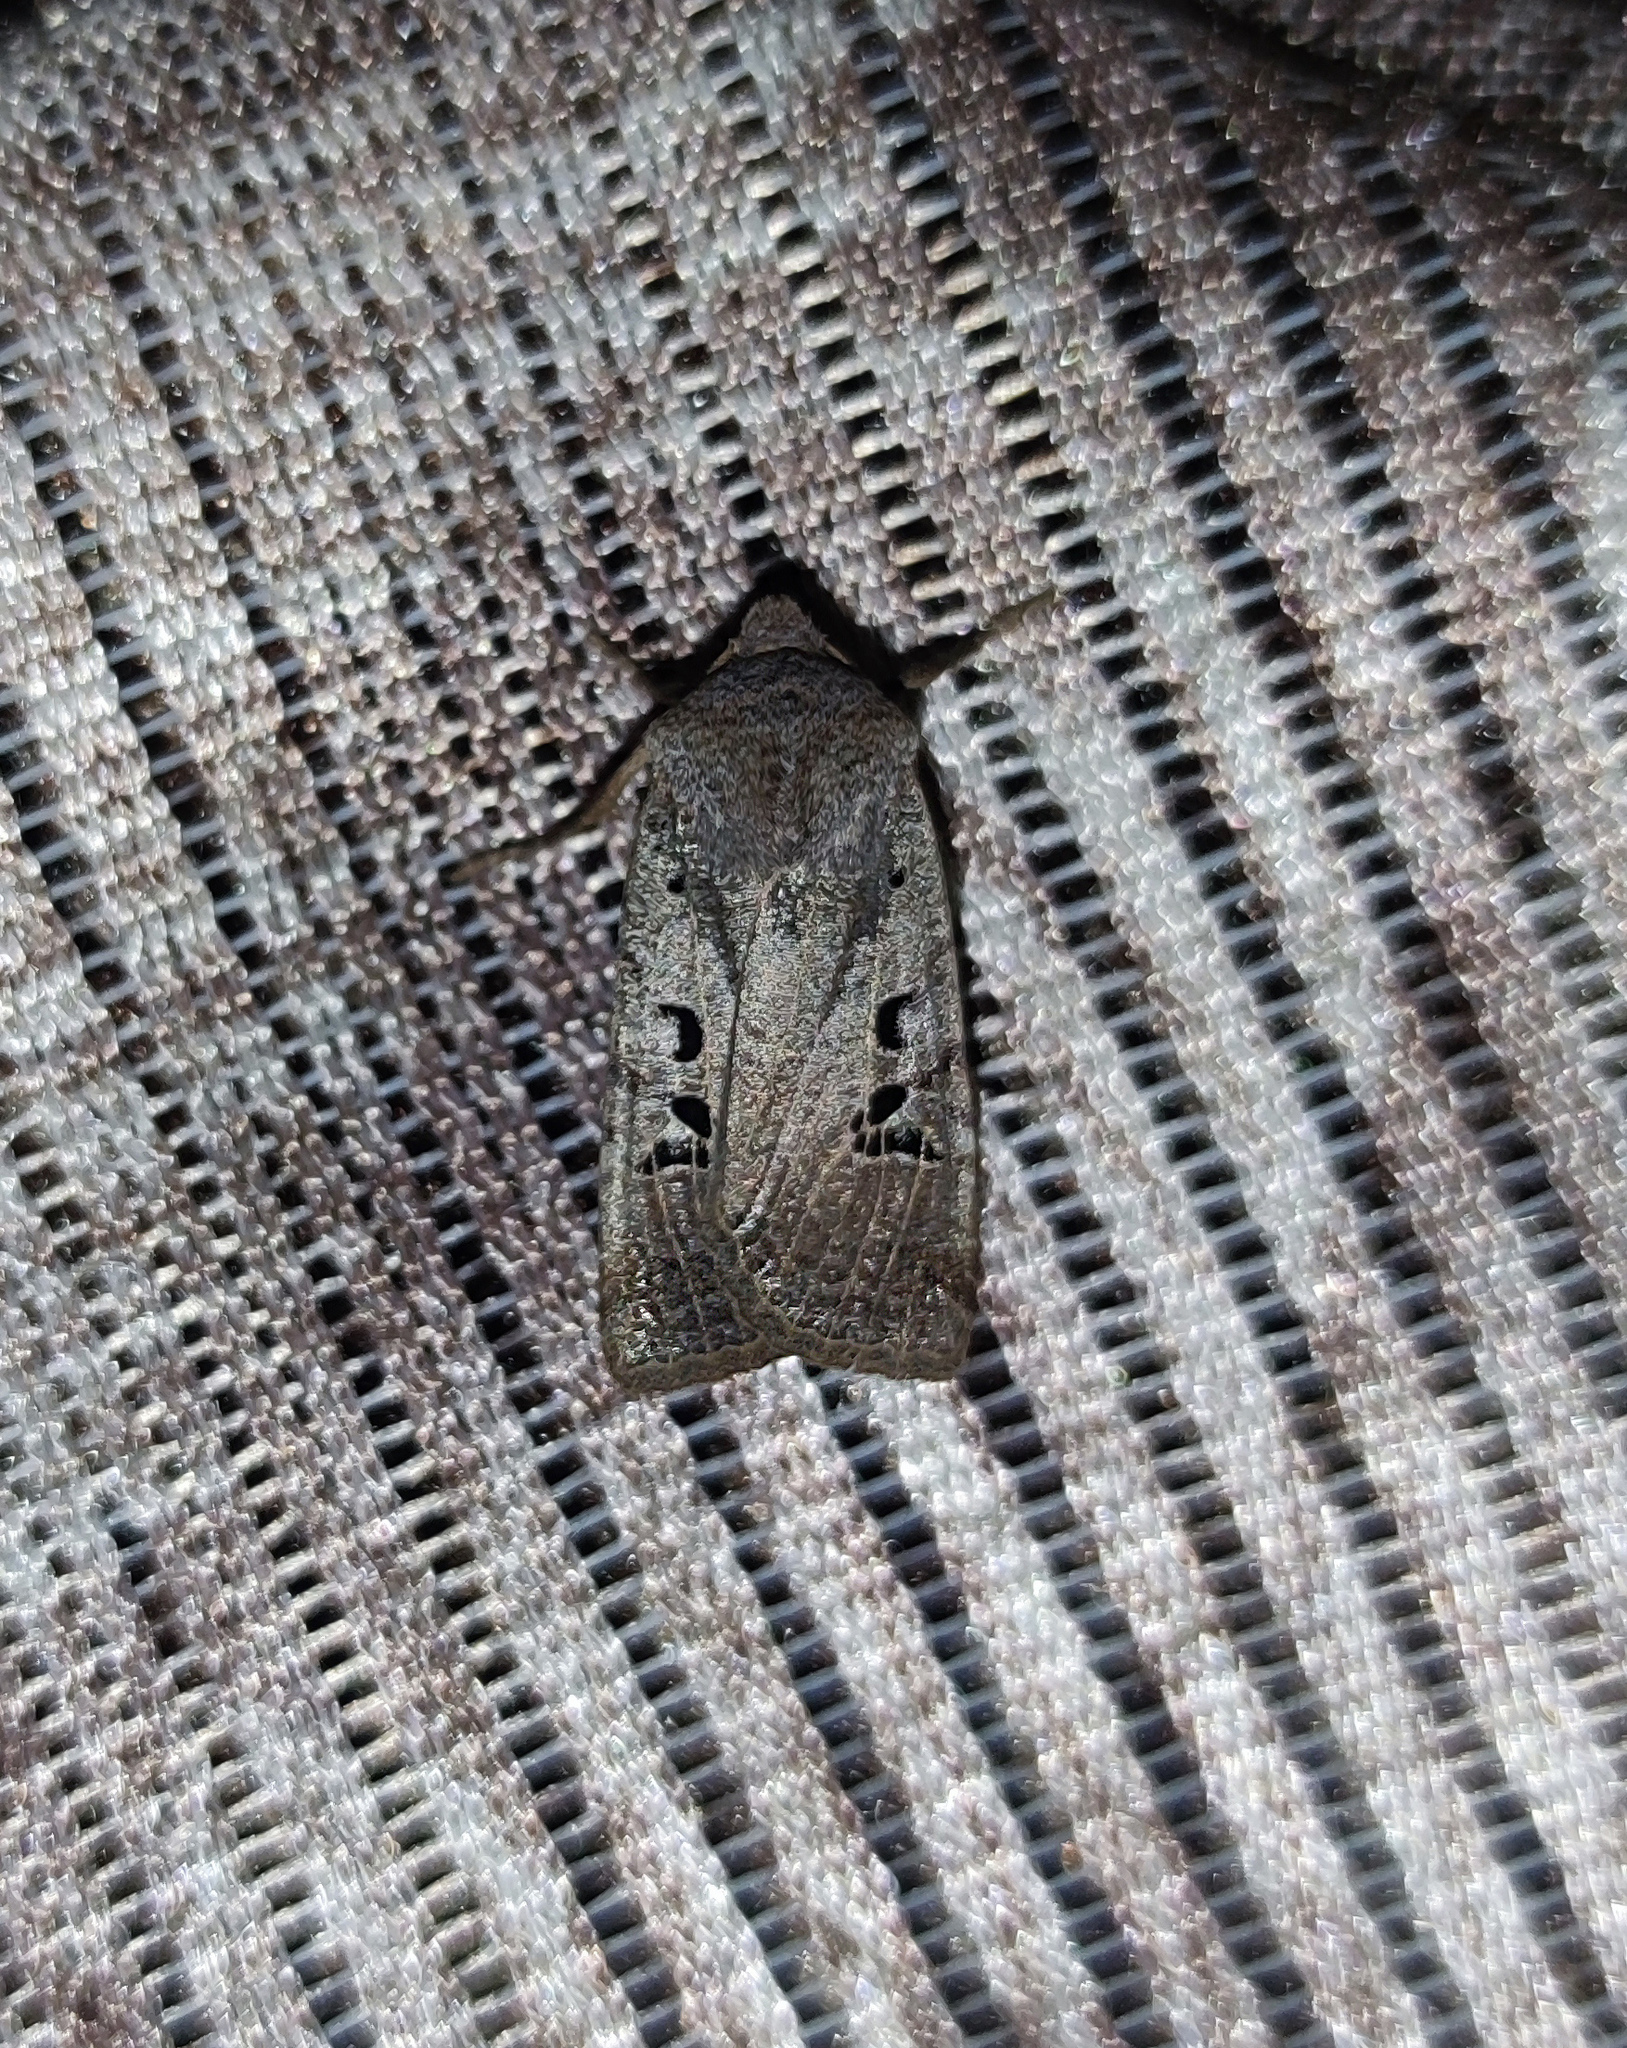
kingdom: Animalia
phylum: Arthropoda
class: Insecta
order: Lepidoptera
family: Noctuidae
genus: Conistra
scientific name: Conistra rubiginosa
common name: Black-spotted chestnut
